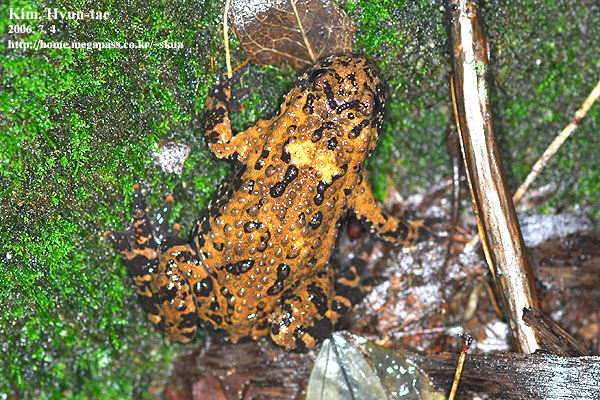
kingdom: Animalia
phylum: Chordata
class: Amphibia
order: Anura
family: Bombinatoridae
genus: Bombina
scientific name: Bombina orientalis
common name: Oriental firebelly toad
